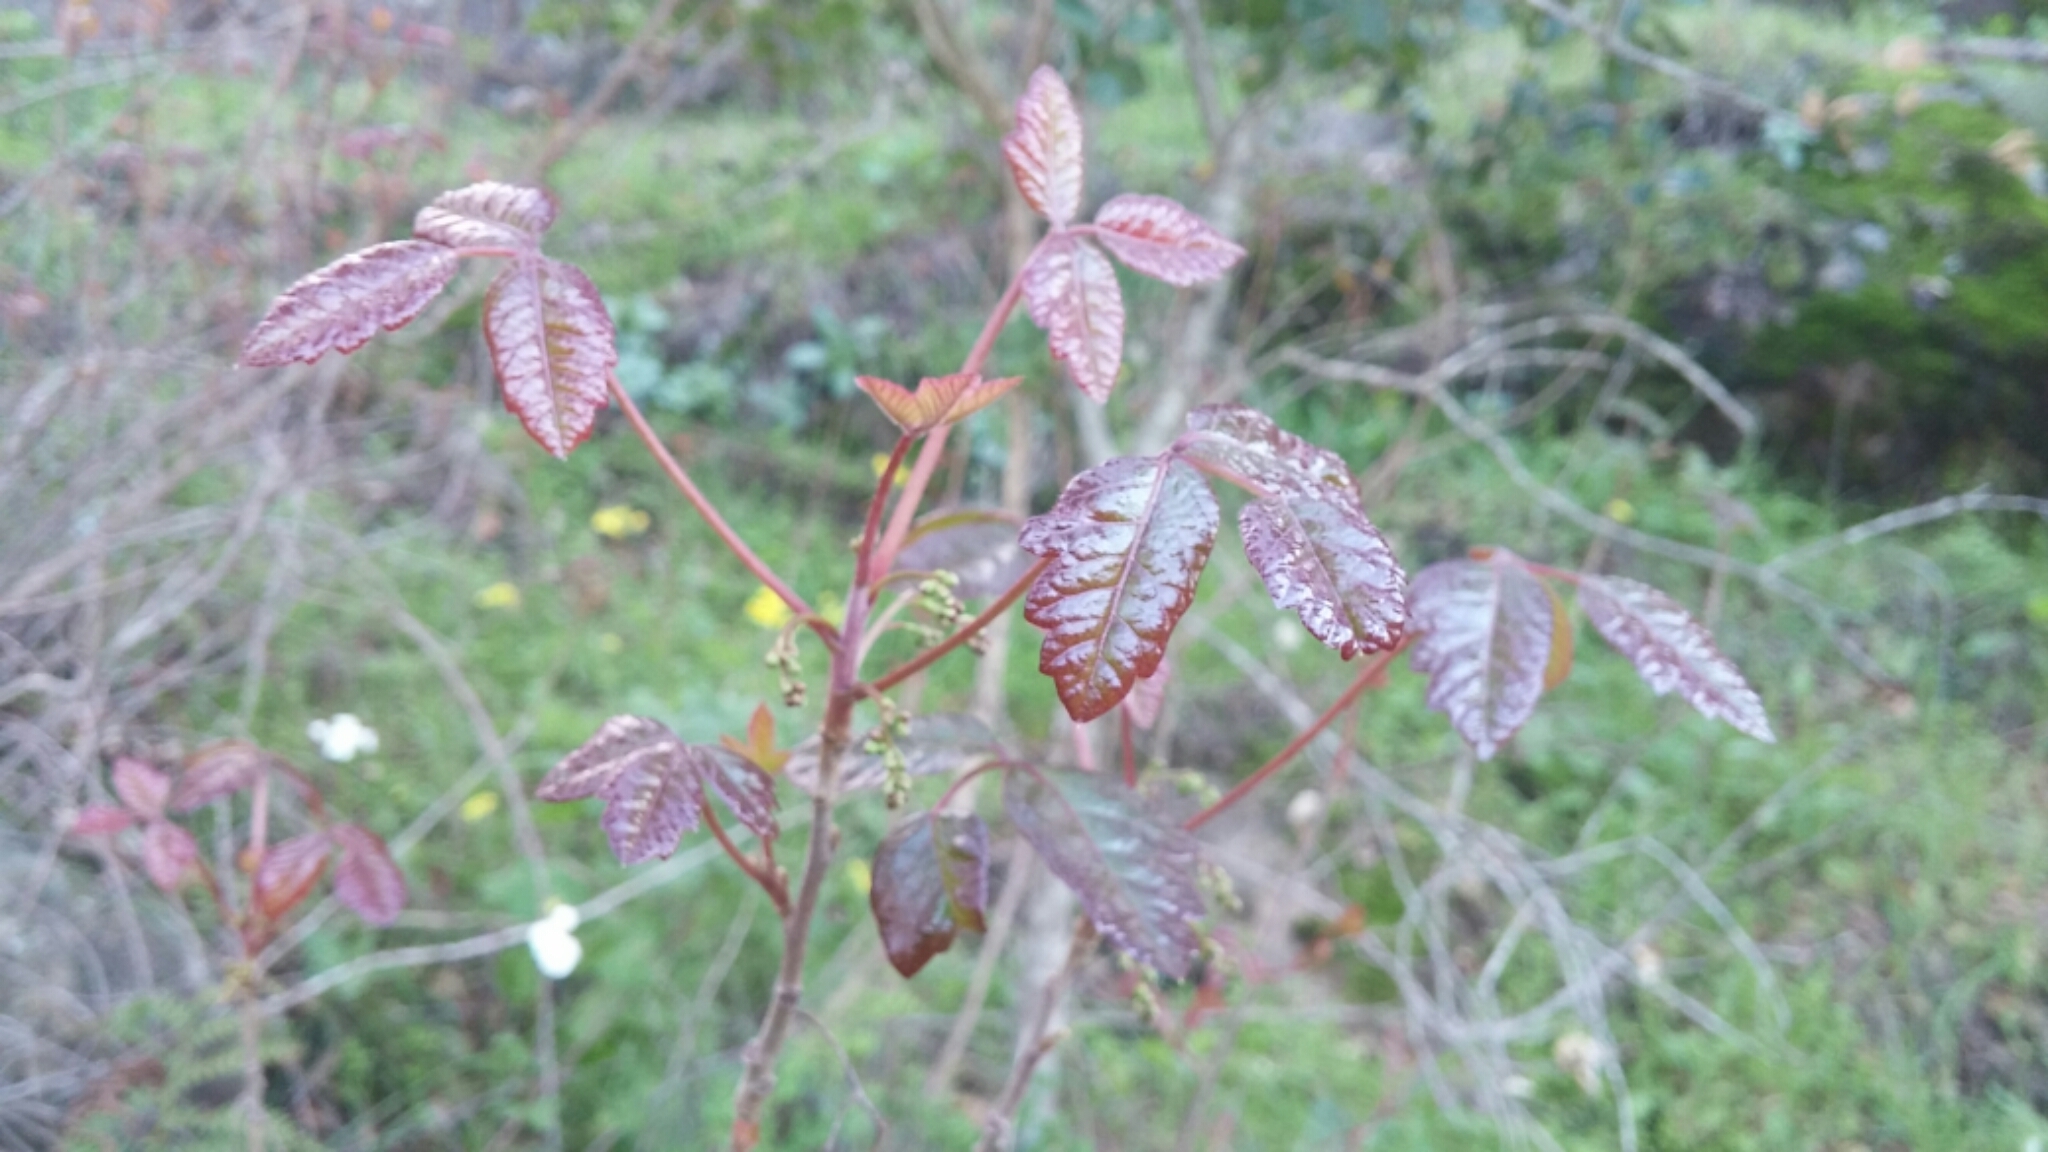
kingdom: Plantae
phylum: Tracheophyta
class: Magnoliopsida
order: Sapindales
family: Anacardiaceae
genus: Toxicodendron
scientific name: Toxicodendron diversilobum
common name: Pacific poison-oak
